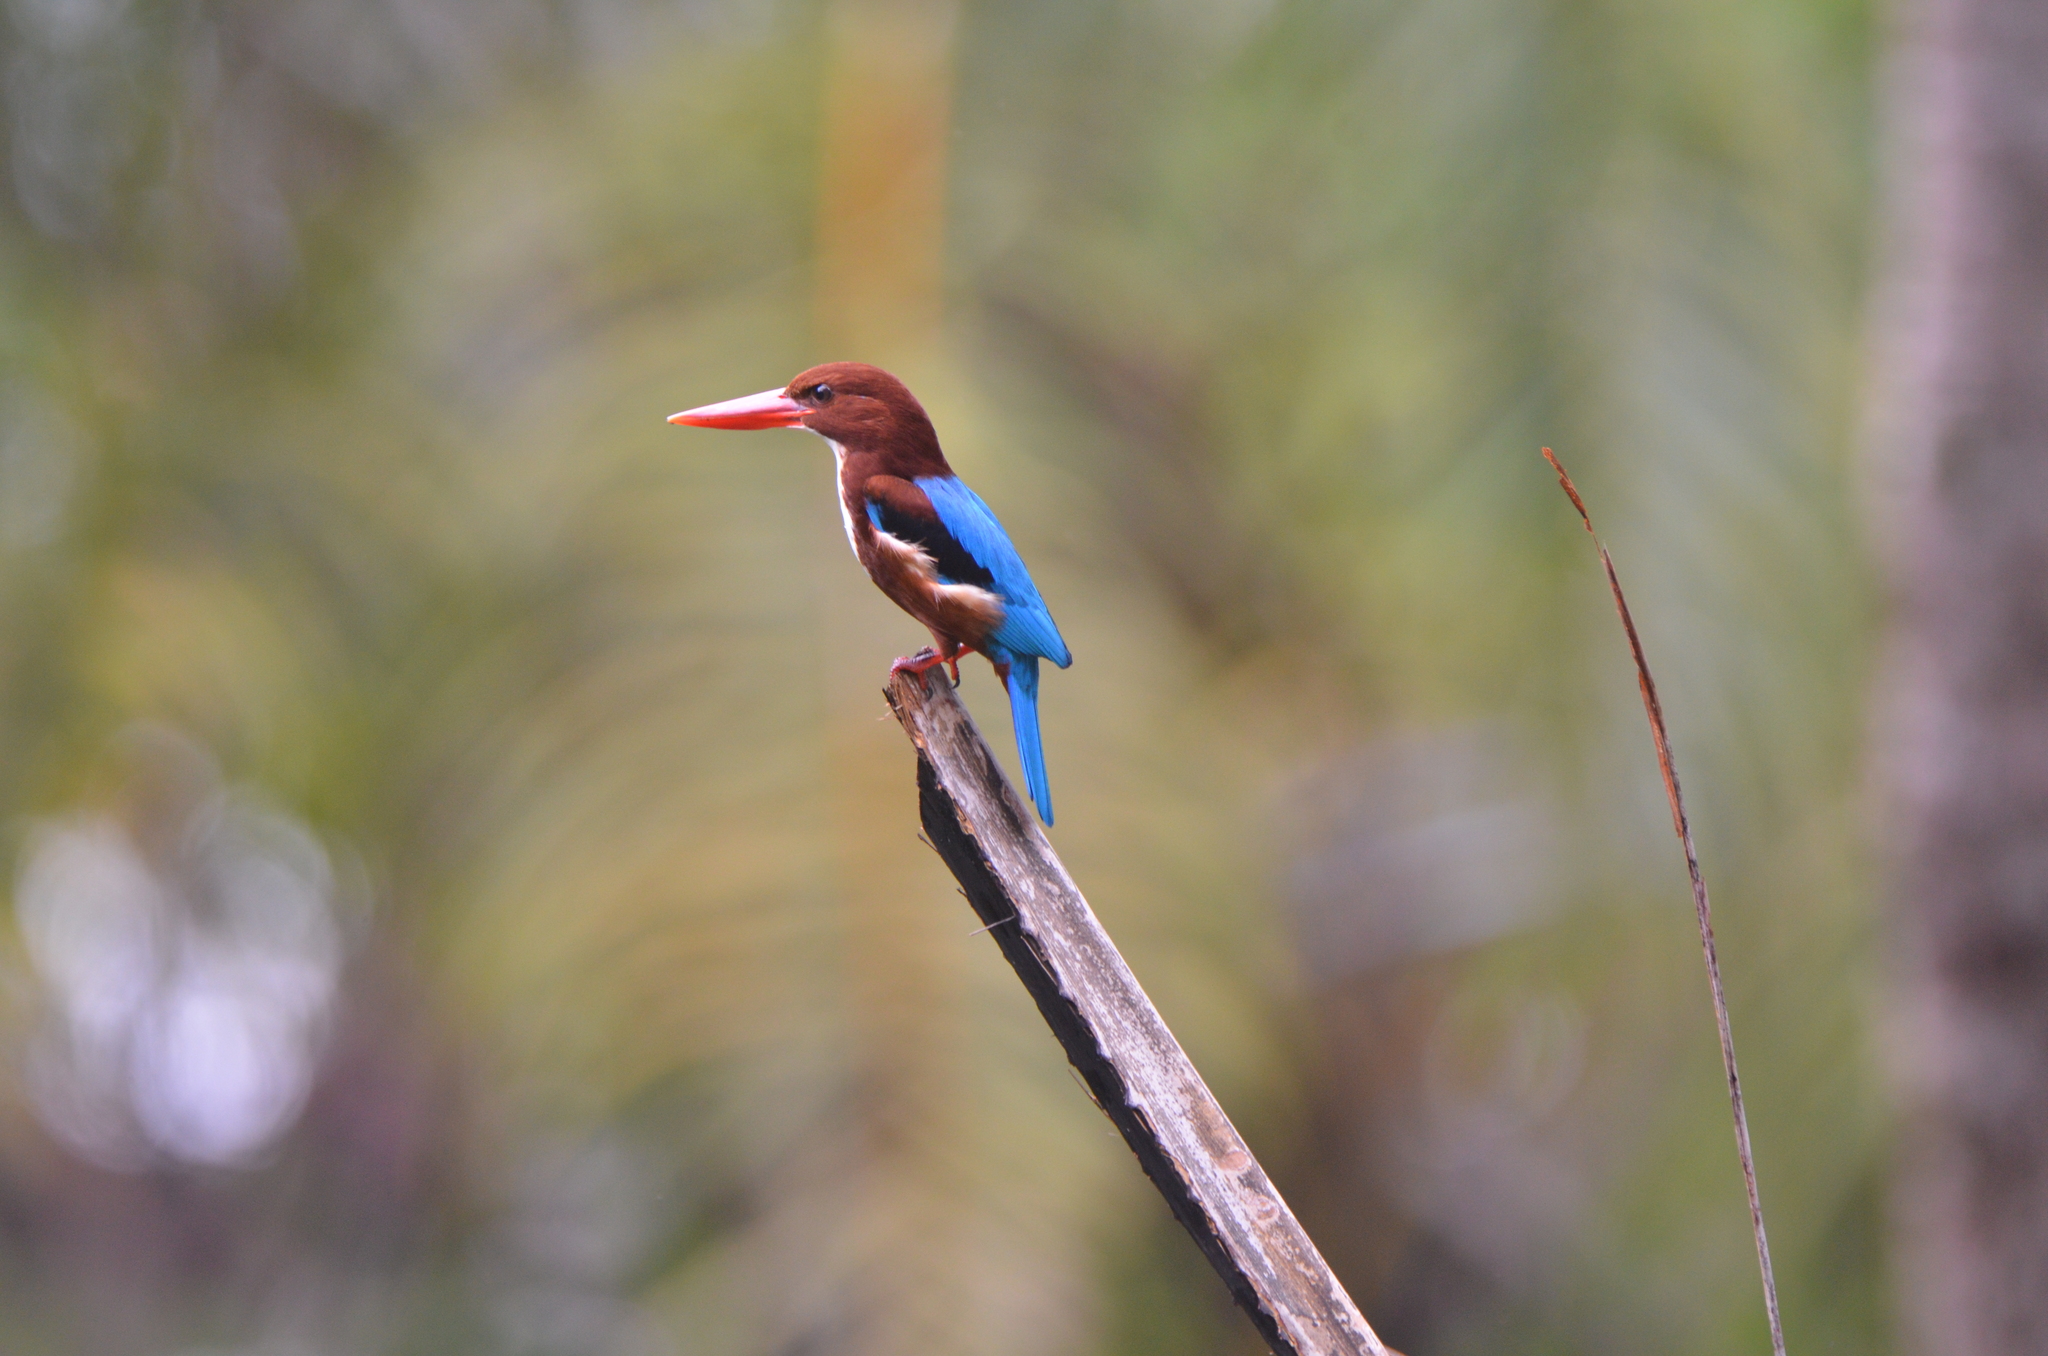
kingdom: Animalia
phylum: Chordata
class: Aves
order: Coraciiformes
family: Alcedinidae
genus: Halcyon
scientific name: Halcyon smyrnensis
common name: White-throated kingfisher
